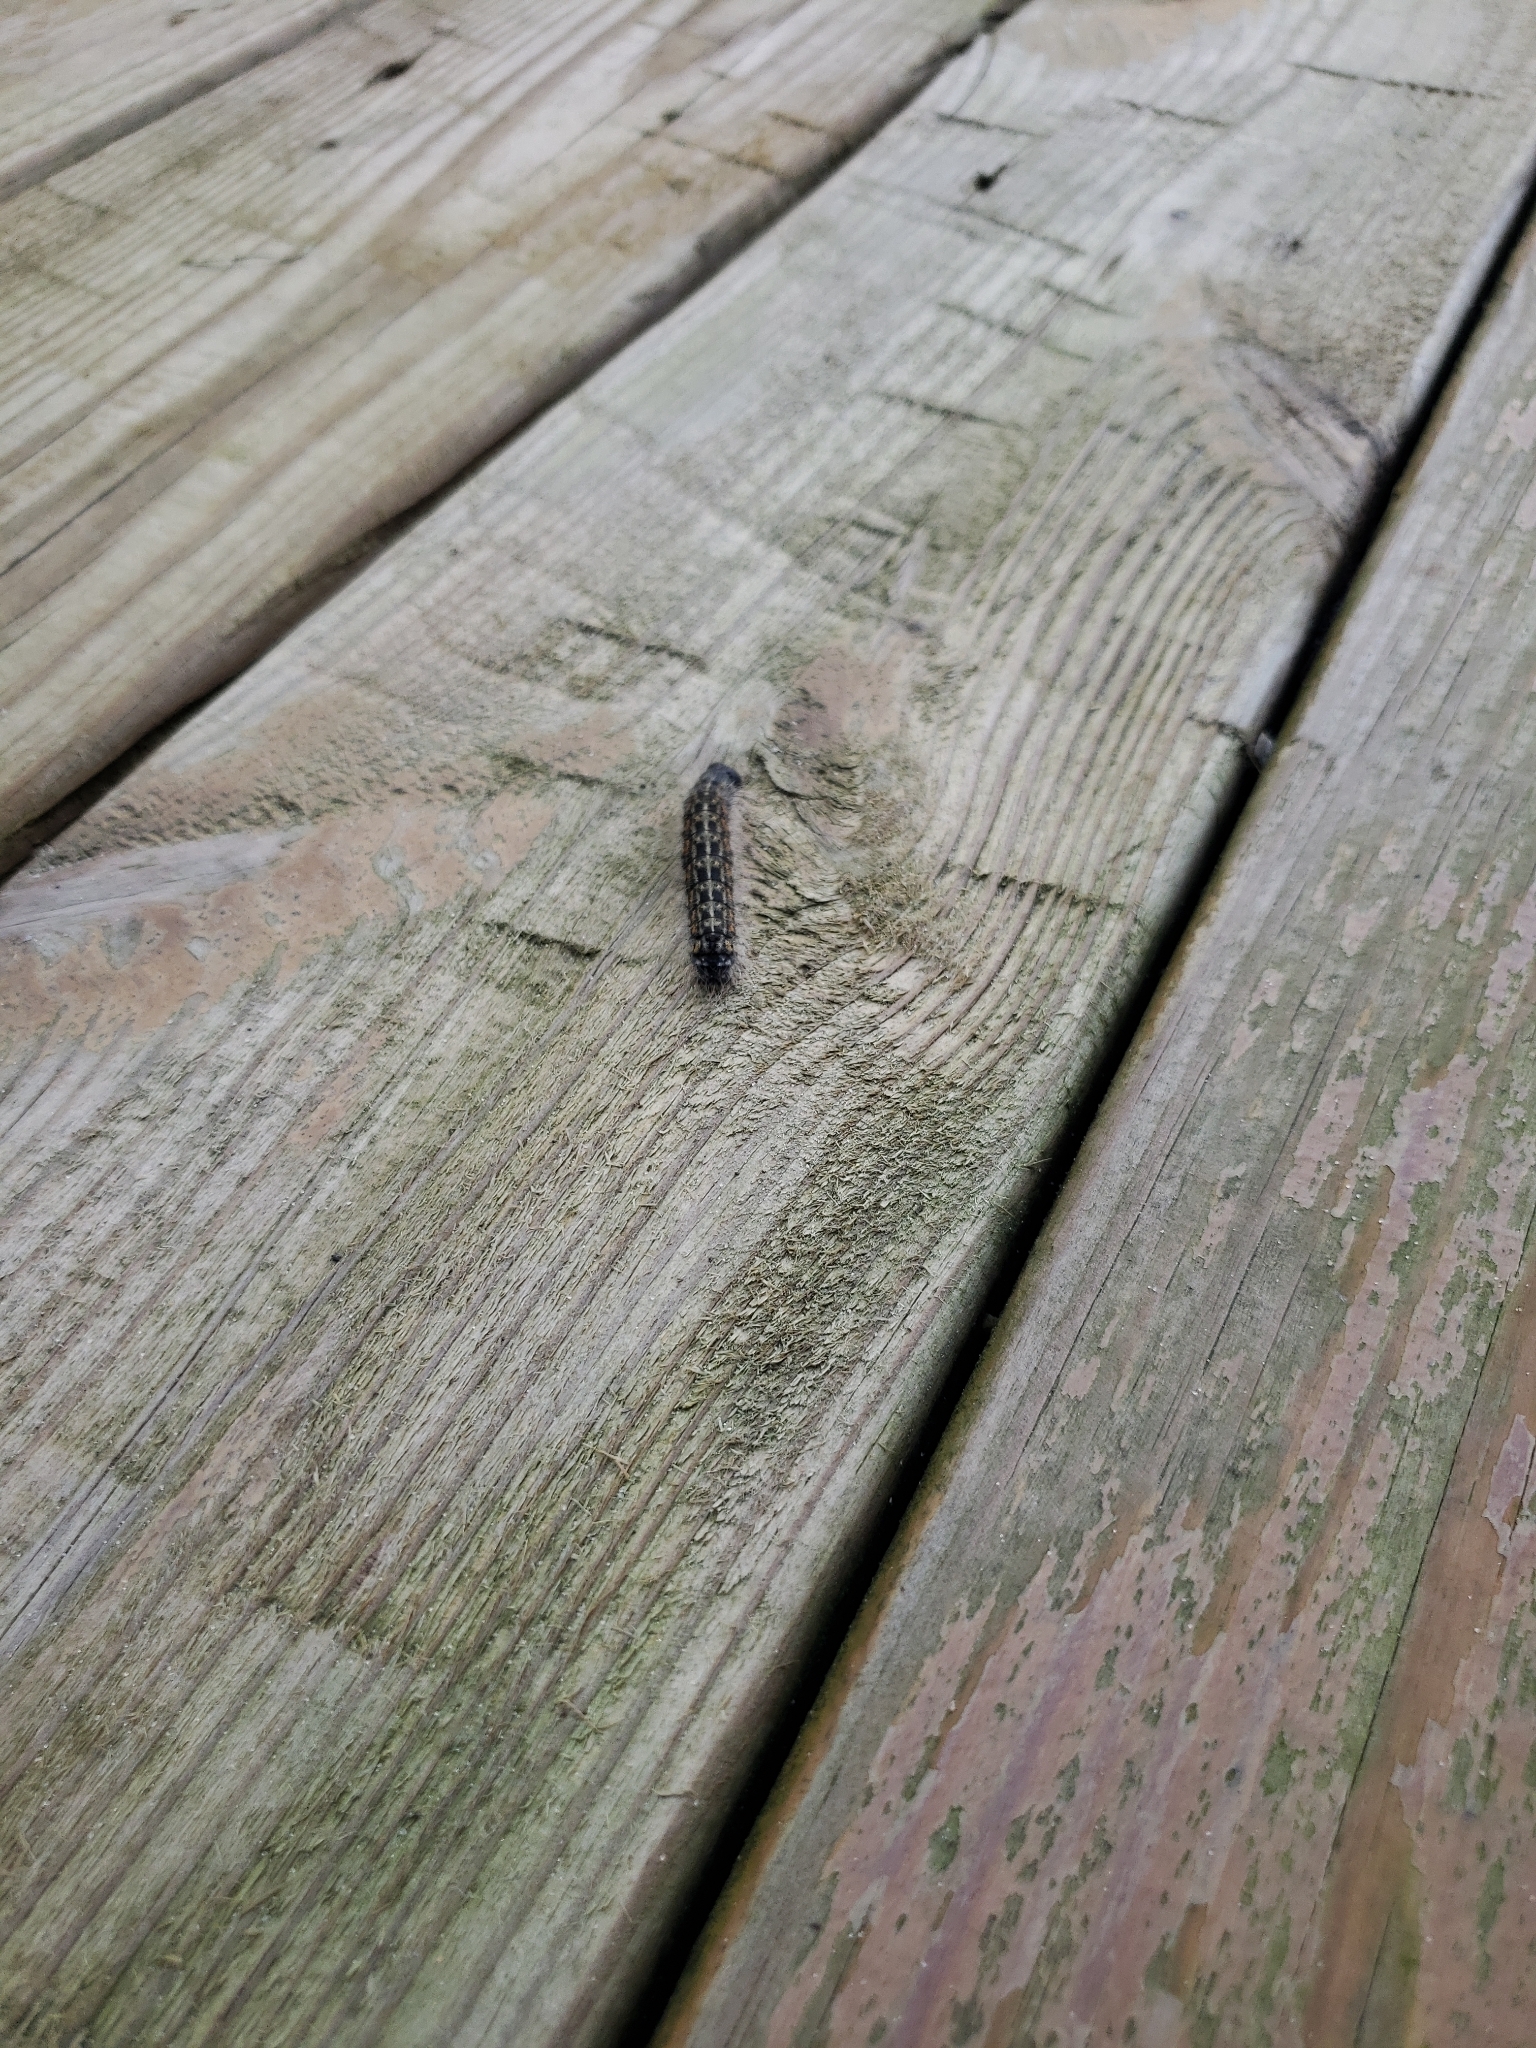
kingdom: Animalia
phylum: Arthropoda
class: Insecta
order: Lepidoptera
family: Noctuidae
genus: Acronicta
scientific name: Acronicta lobeliae
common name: Greater oak dagger
